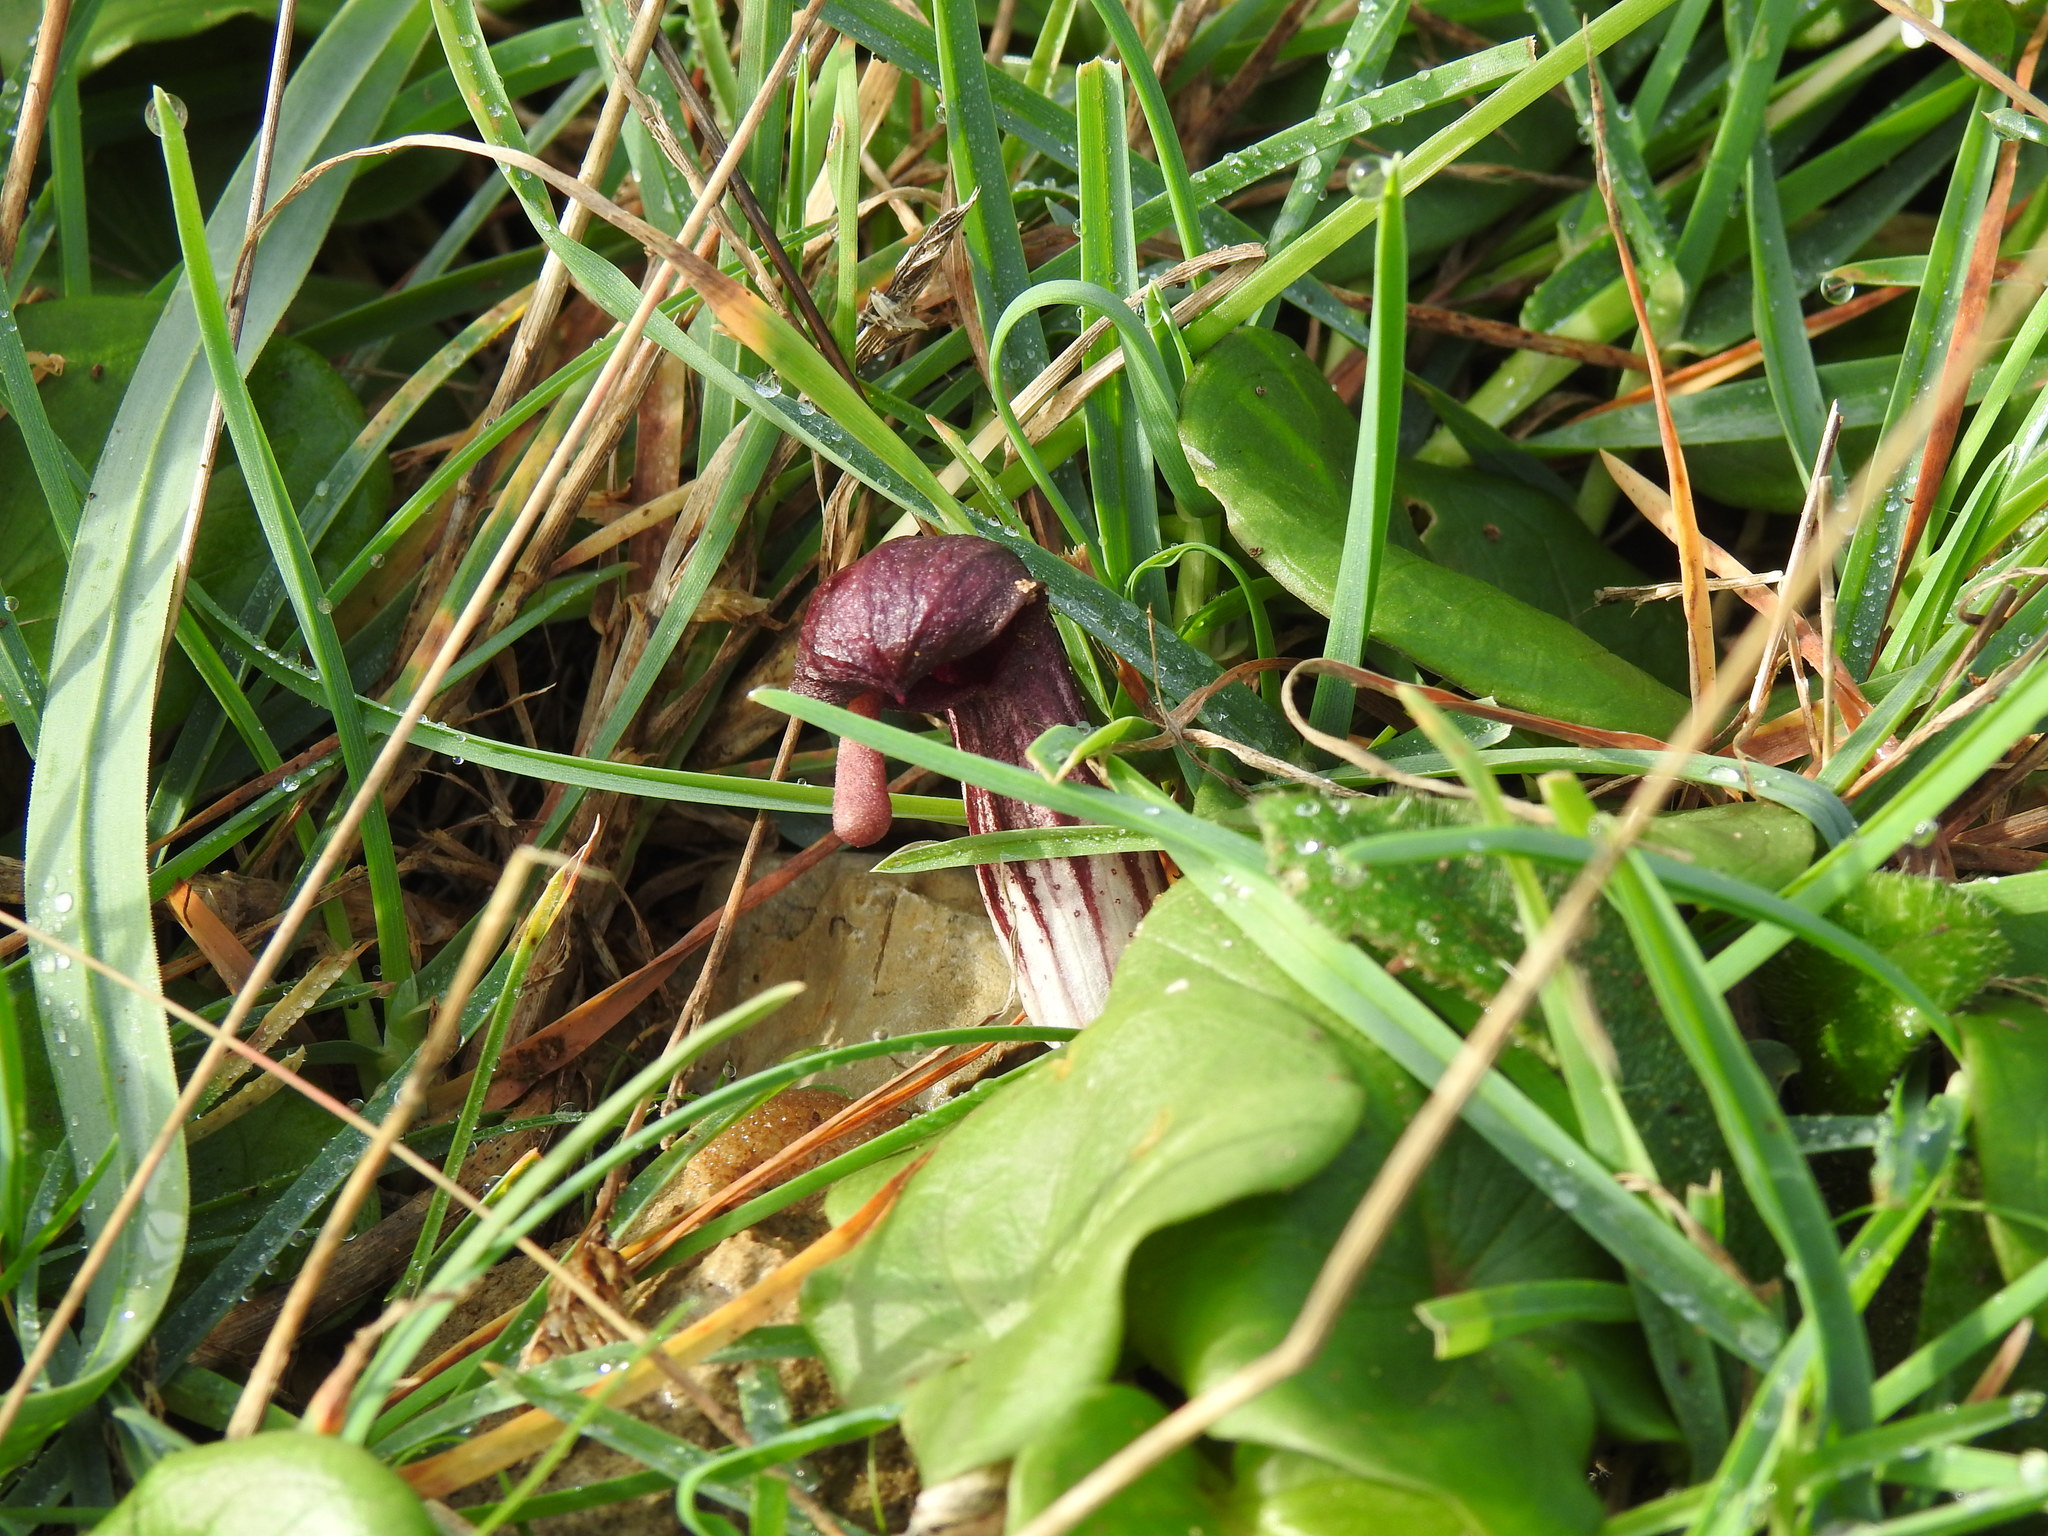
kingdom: Plantae
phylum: Tracheophyta
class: Liliopsida
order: Alismatales
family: Araceae
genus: Arisarum
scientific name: Arisarum simorrhinum
